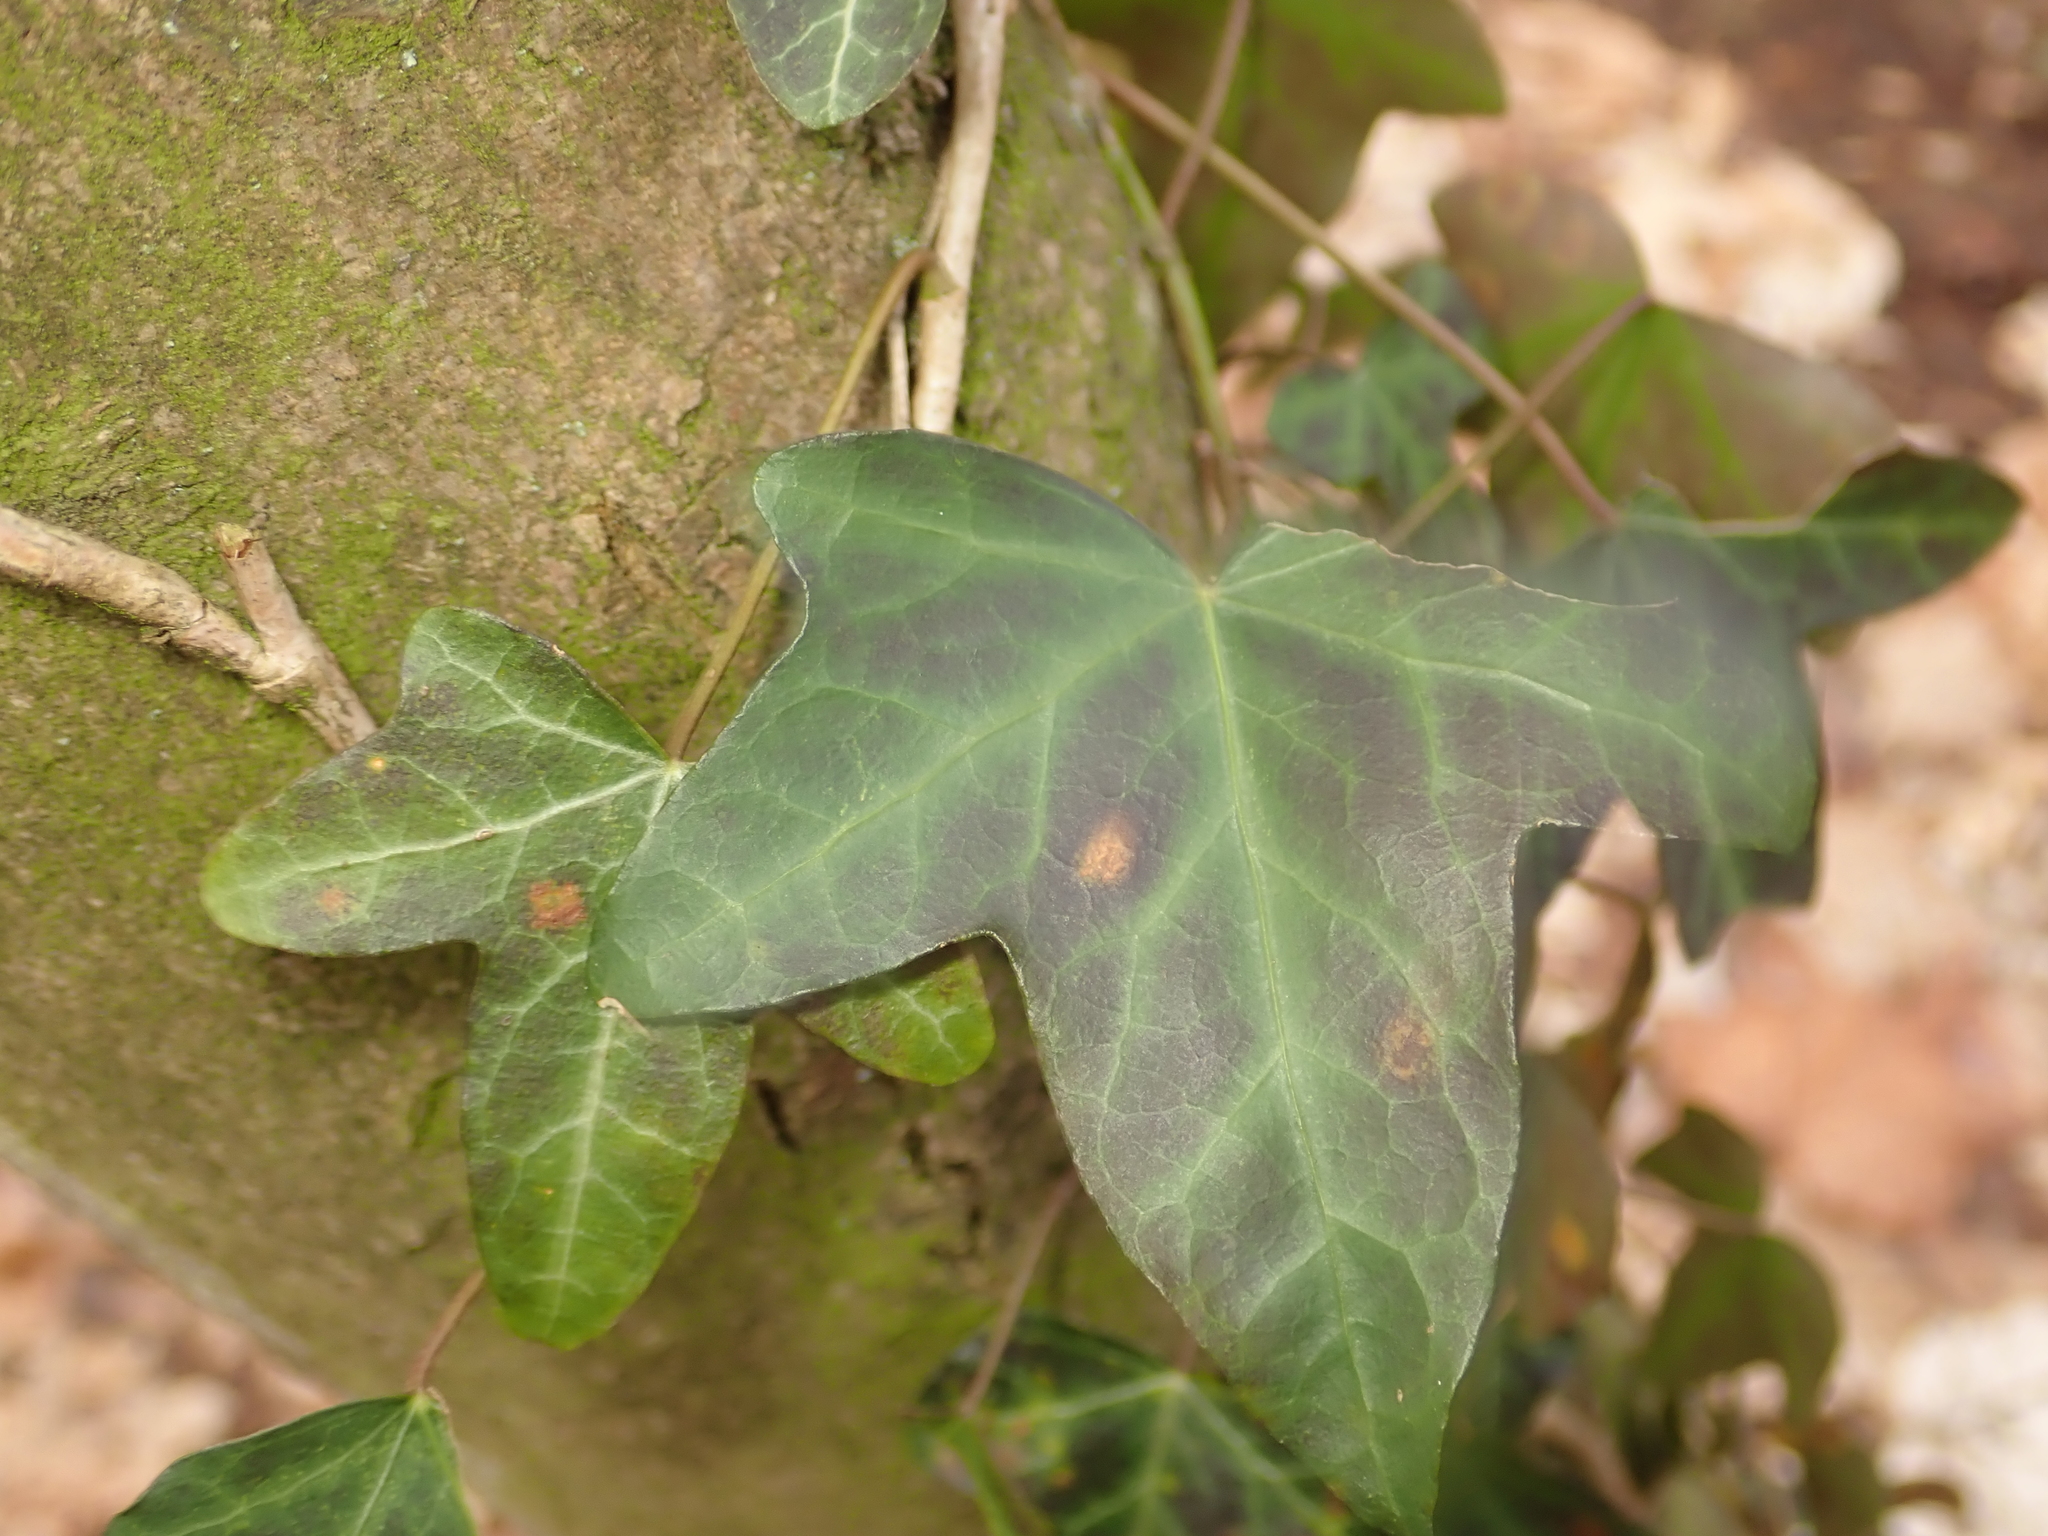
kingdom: Plantae
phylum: Tracheophyta
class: Magnoliopsida
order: Apiales
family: Araliaceae
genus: Hedera
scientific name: Hedera helix
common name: Ivy
